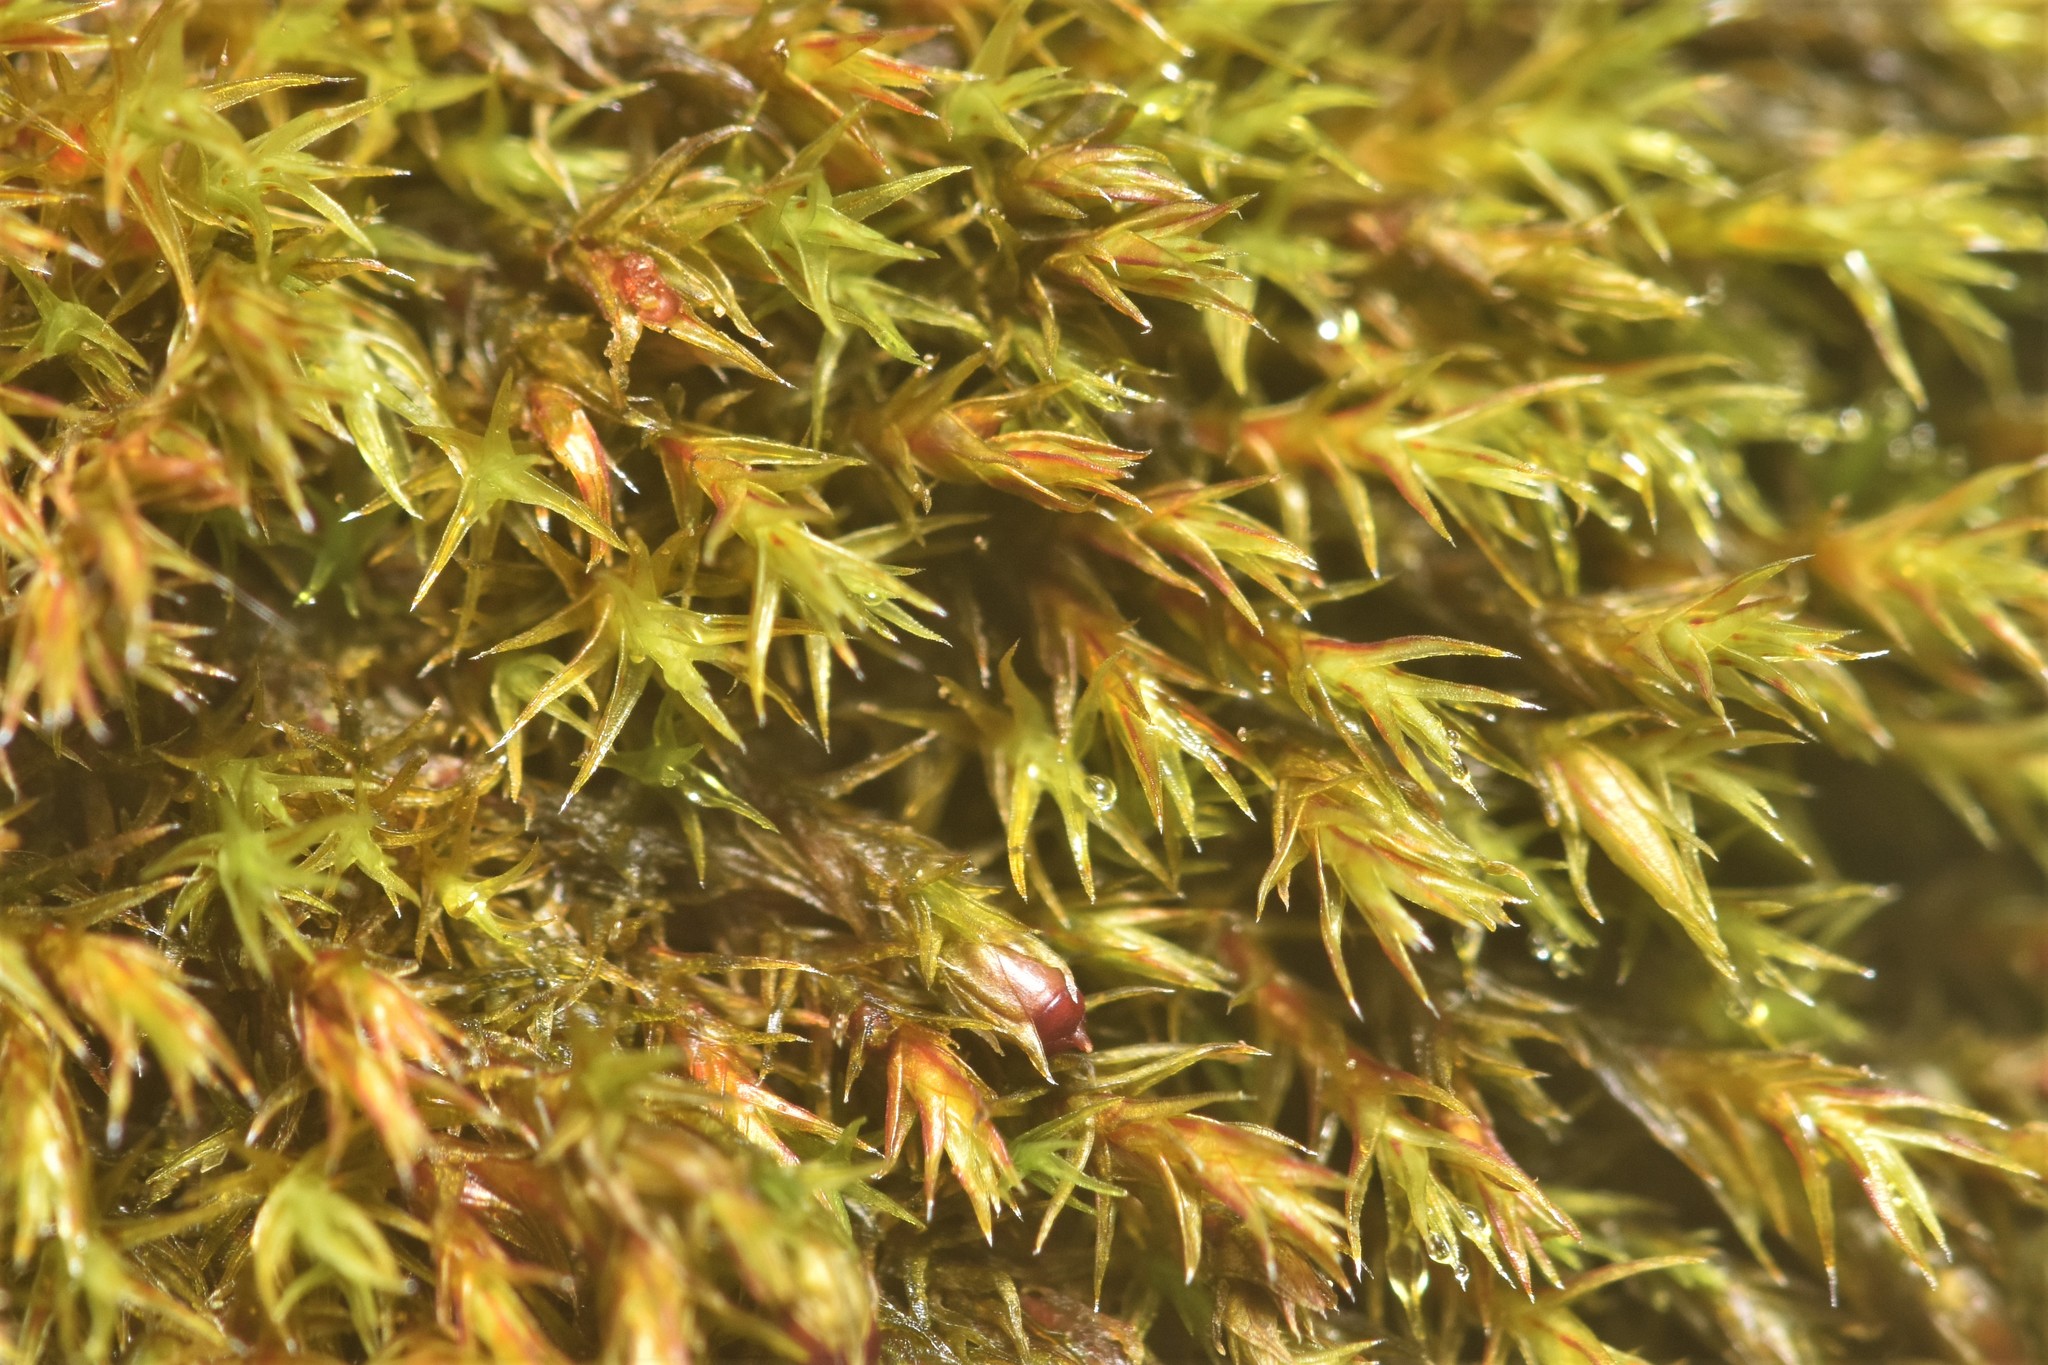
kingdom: Plantae
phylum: Bryophyta
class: Bryopsida
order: Grimmiales
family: Grimmiaceae
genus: Schistidium
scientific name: Schistidium papillosum
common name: Papillose bloom moss
